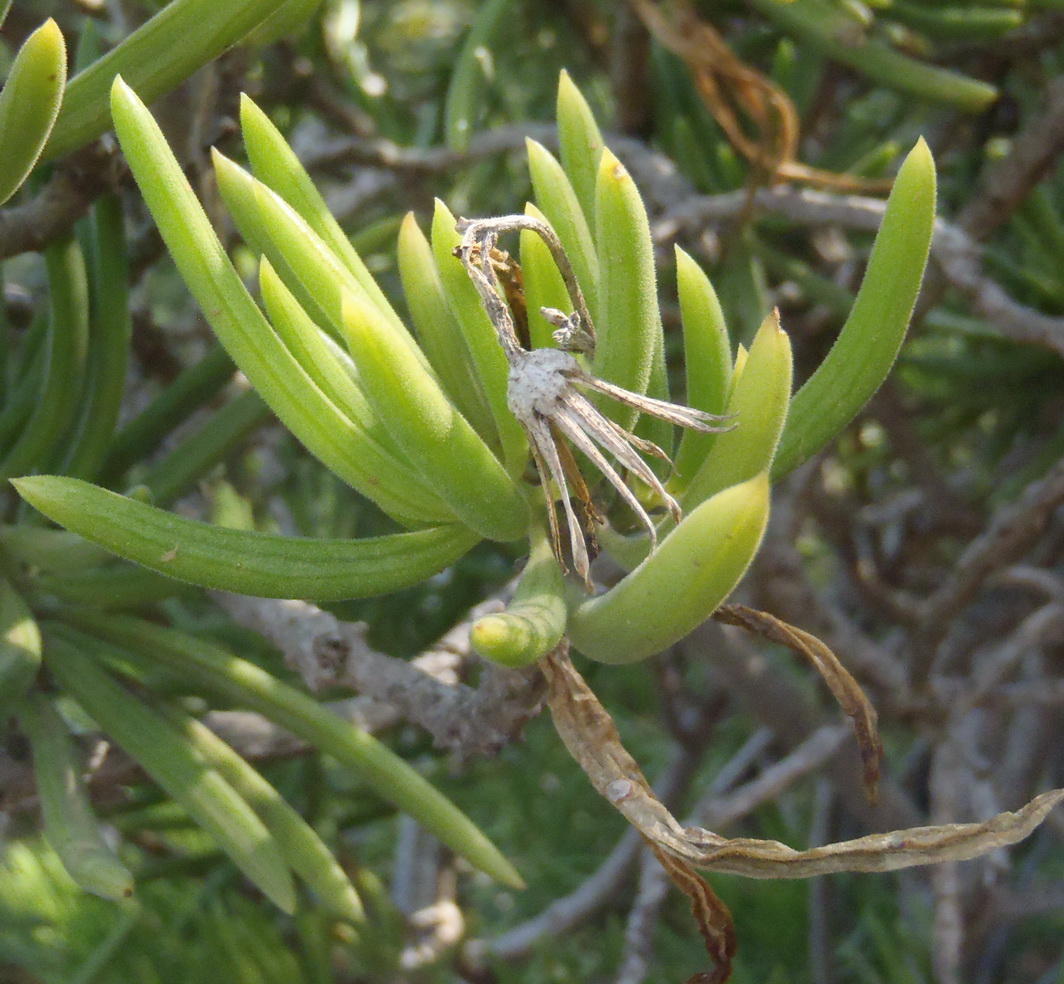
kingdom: Plantae
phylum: Tracheophyta
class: Magnoliopsida
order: Asterales
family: Asteraceae
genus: Kleinia
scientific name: Kleinia barbertonica
